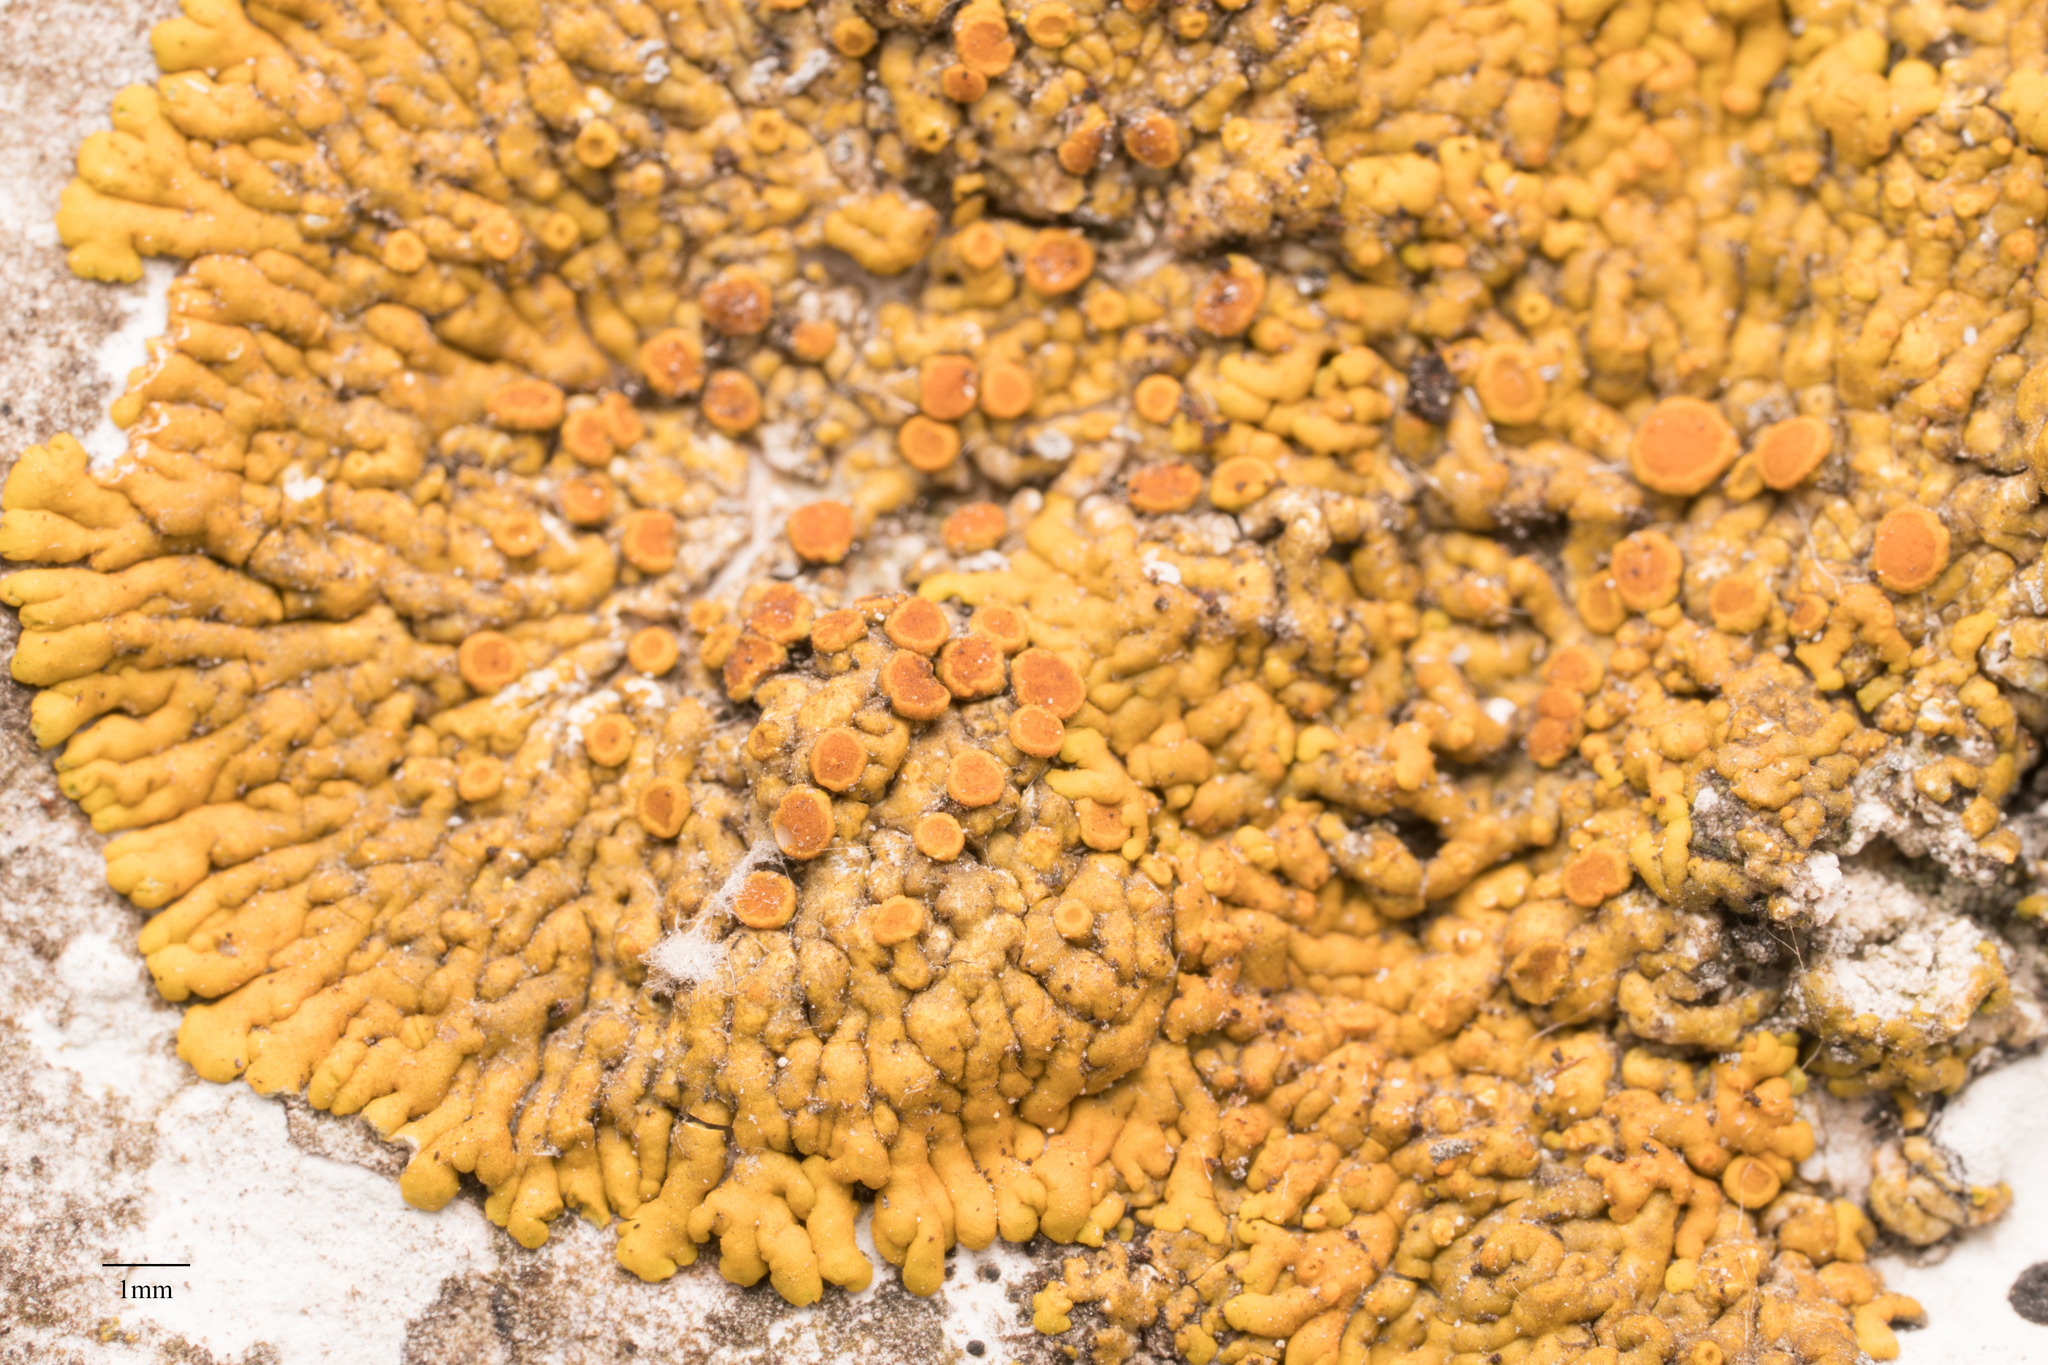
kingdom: Fungi
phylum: Ascomycota
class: Lecanoromycetes
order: Teloschistales
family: Teloschistaceae
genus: Xanthoria
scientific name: Xanthoria elegans
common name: Elegant sunburst lichen
